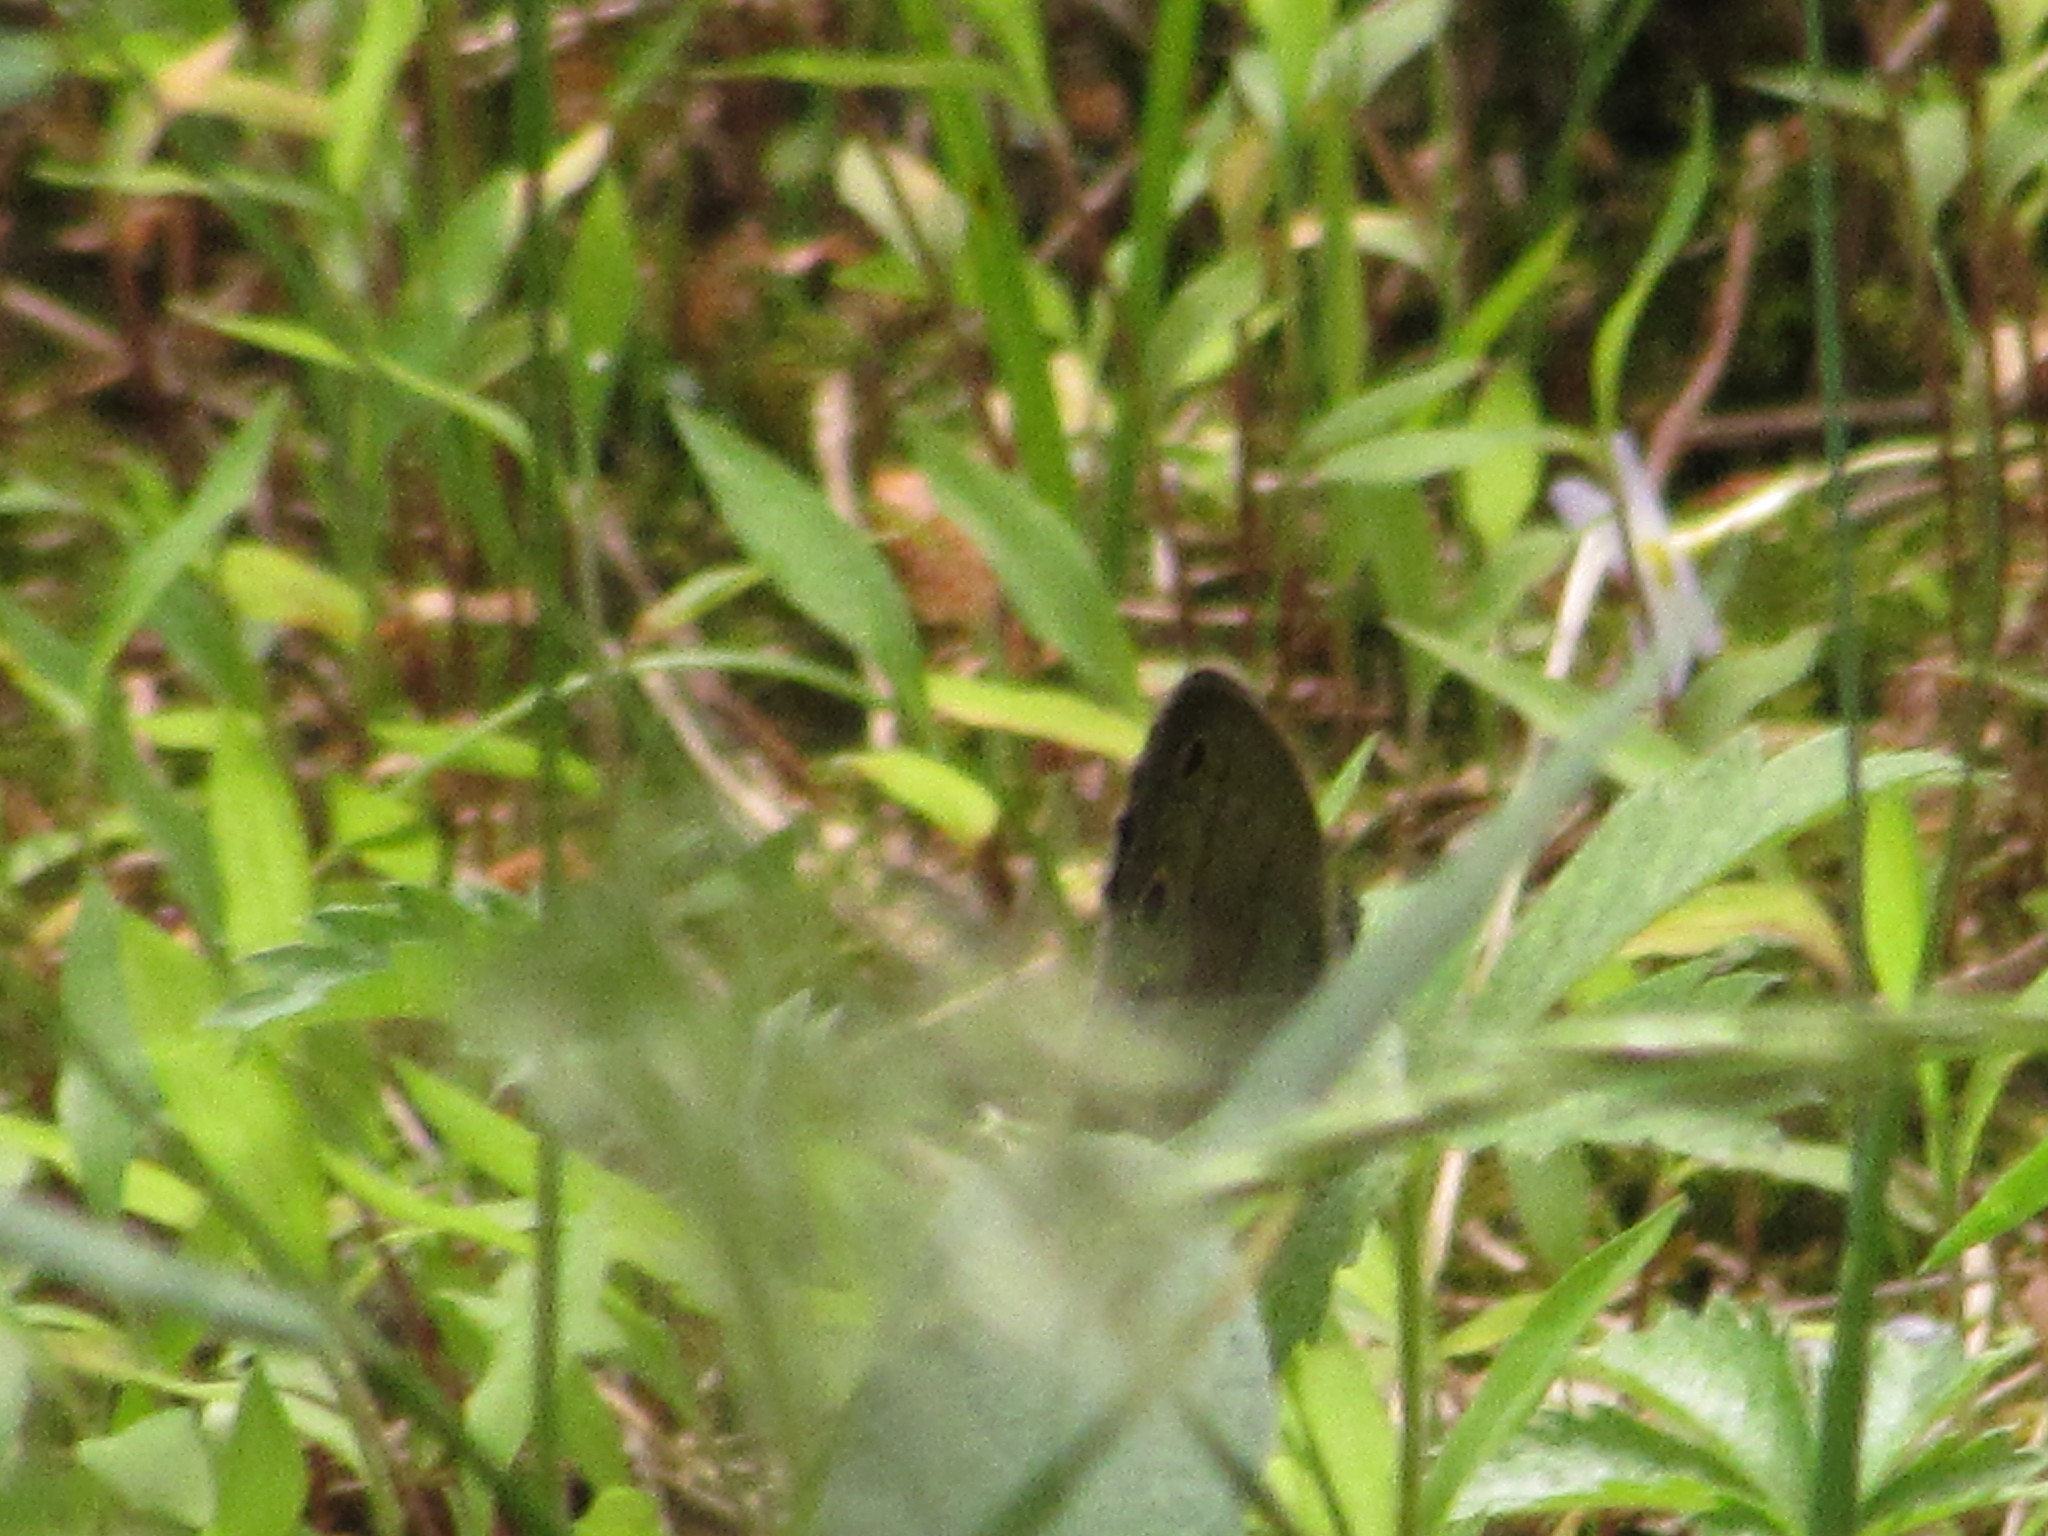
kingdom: Animalia
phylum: Arthropoda
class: Insecta
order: Lepidoptera
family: Nymphalidae
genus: Euptychia
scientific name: Euptychia cymela
